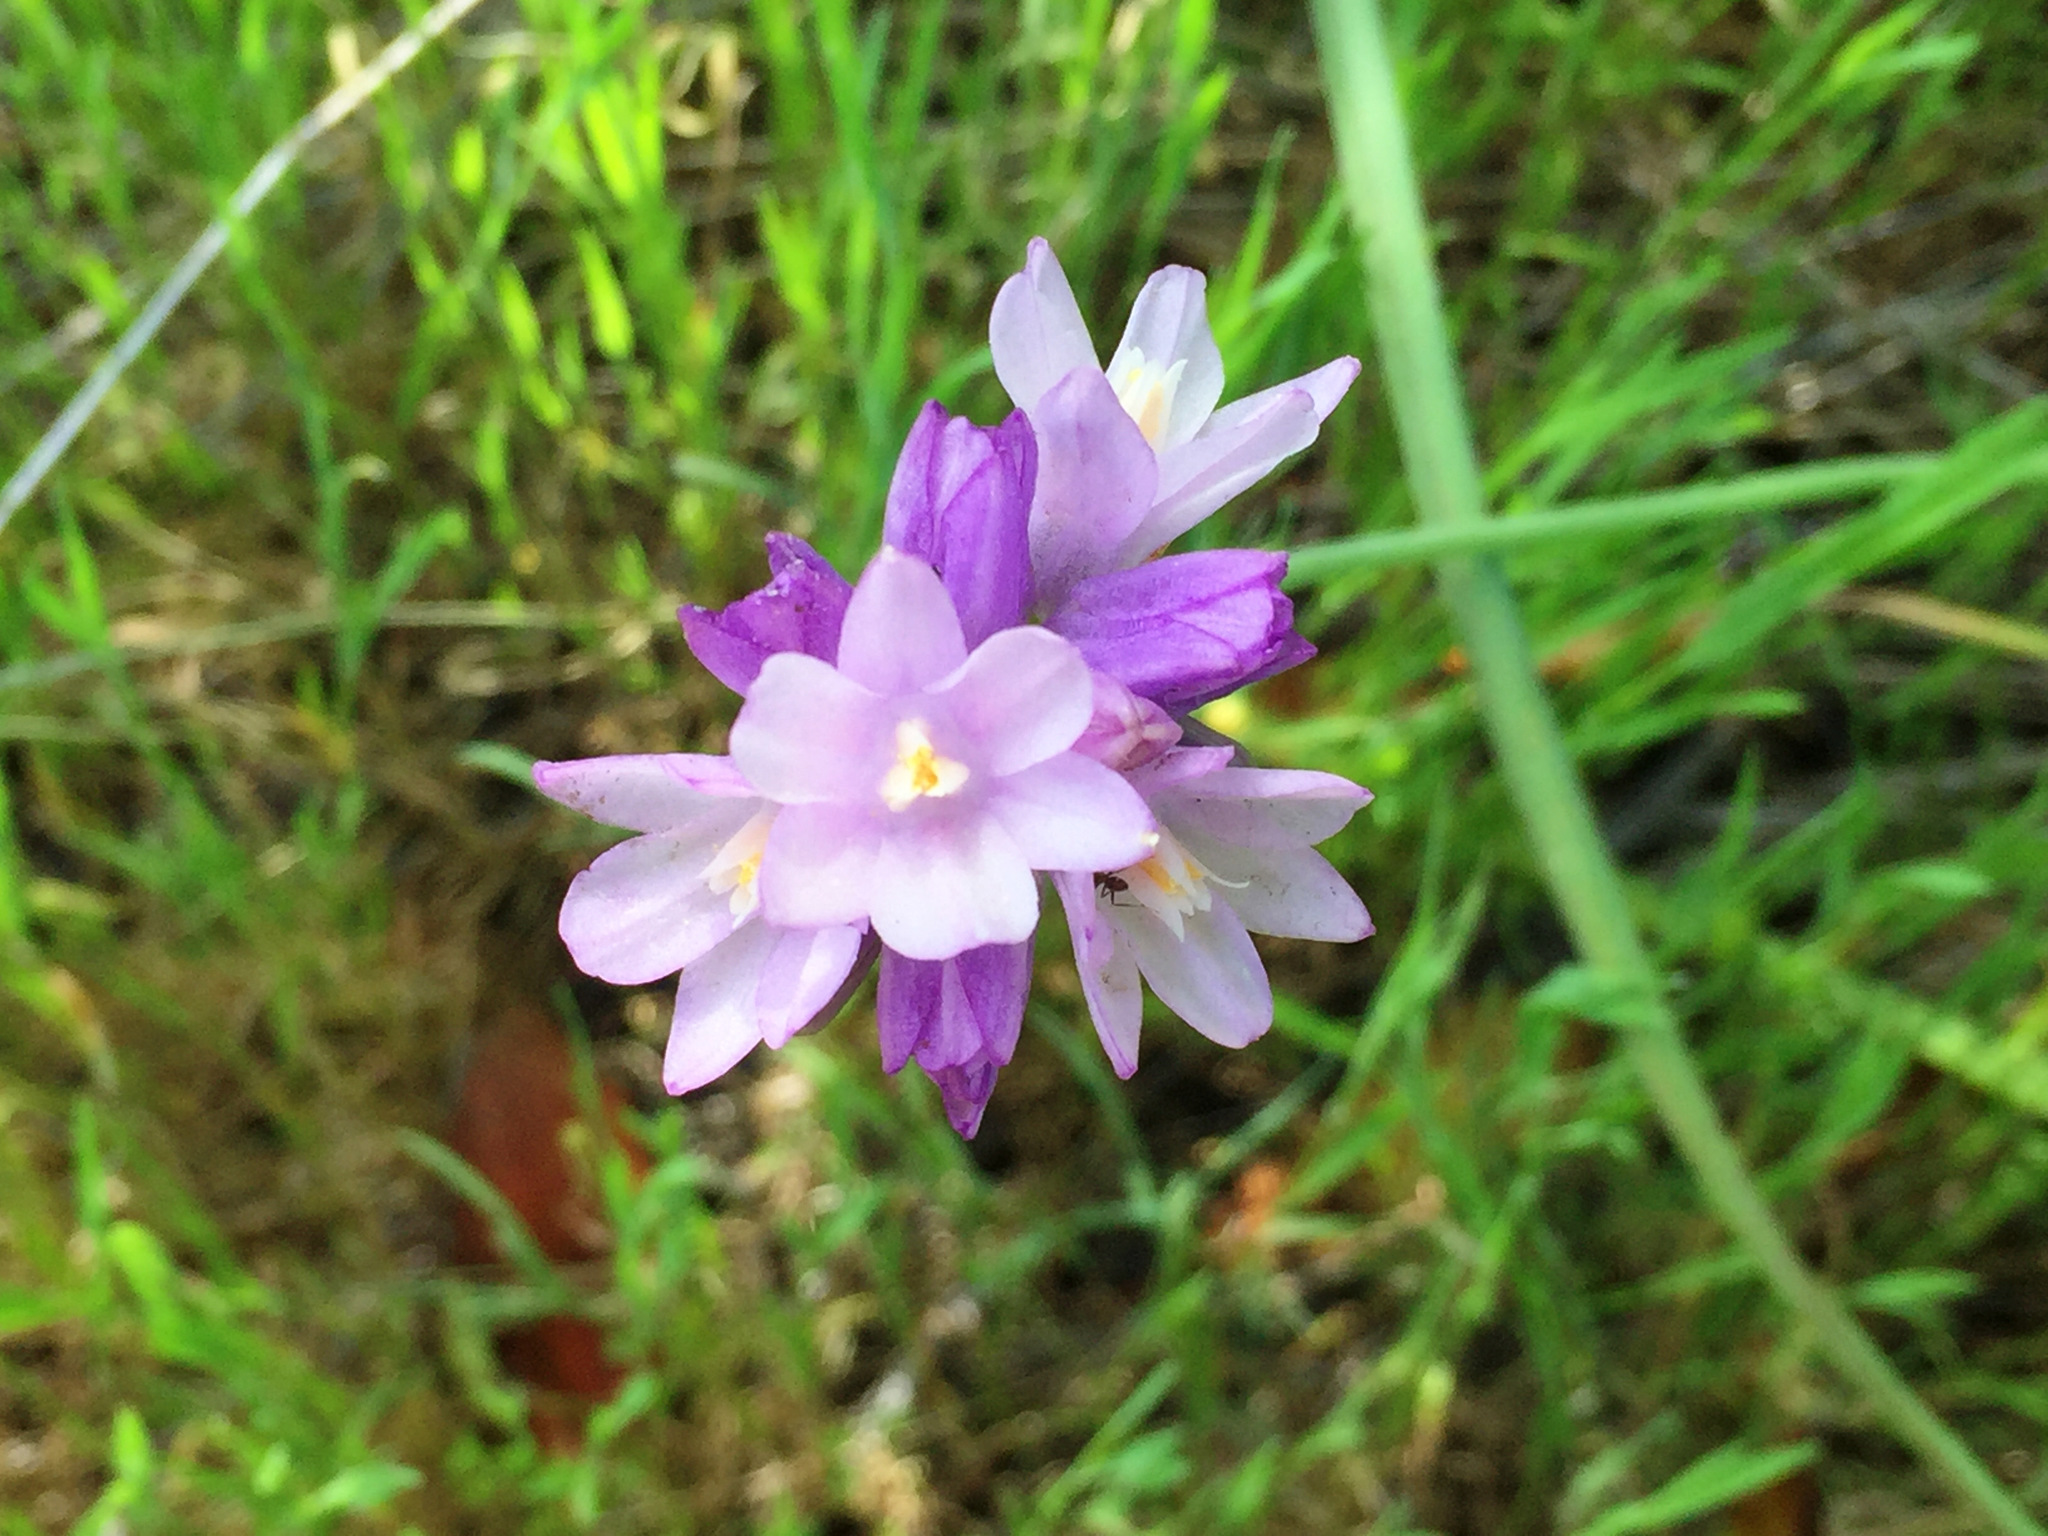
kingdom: Plantae
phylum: Tracheophyta
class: Liliopsida
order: Asparagales
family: Asparagaceae
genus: Dipterostemon
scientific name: Dipterostemon capitatus
